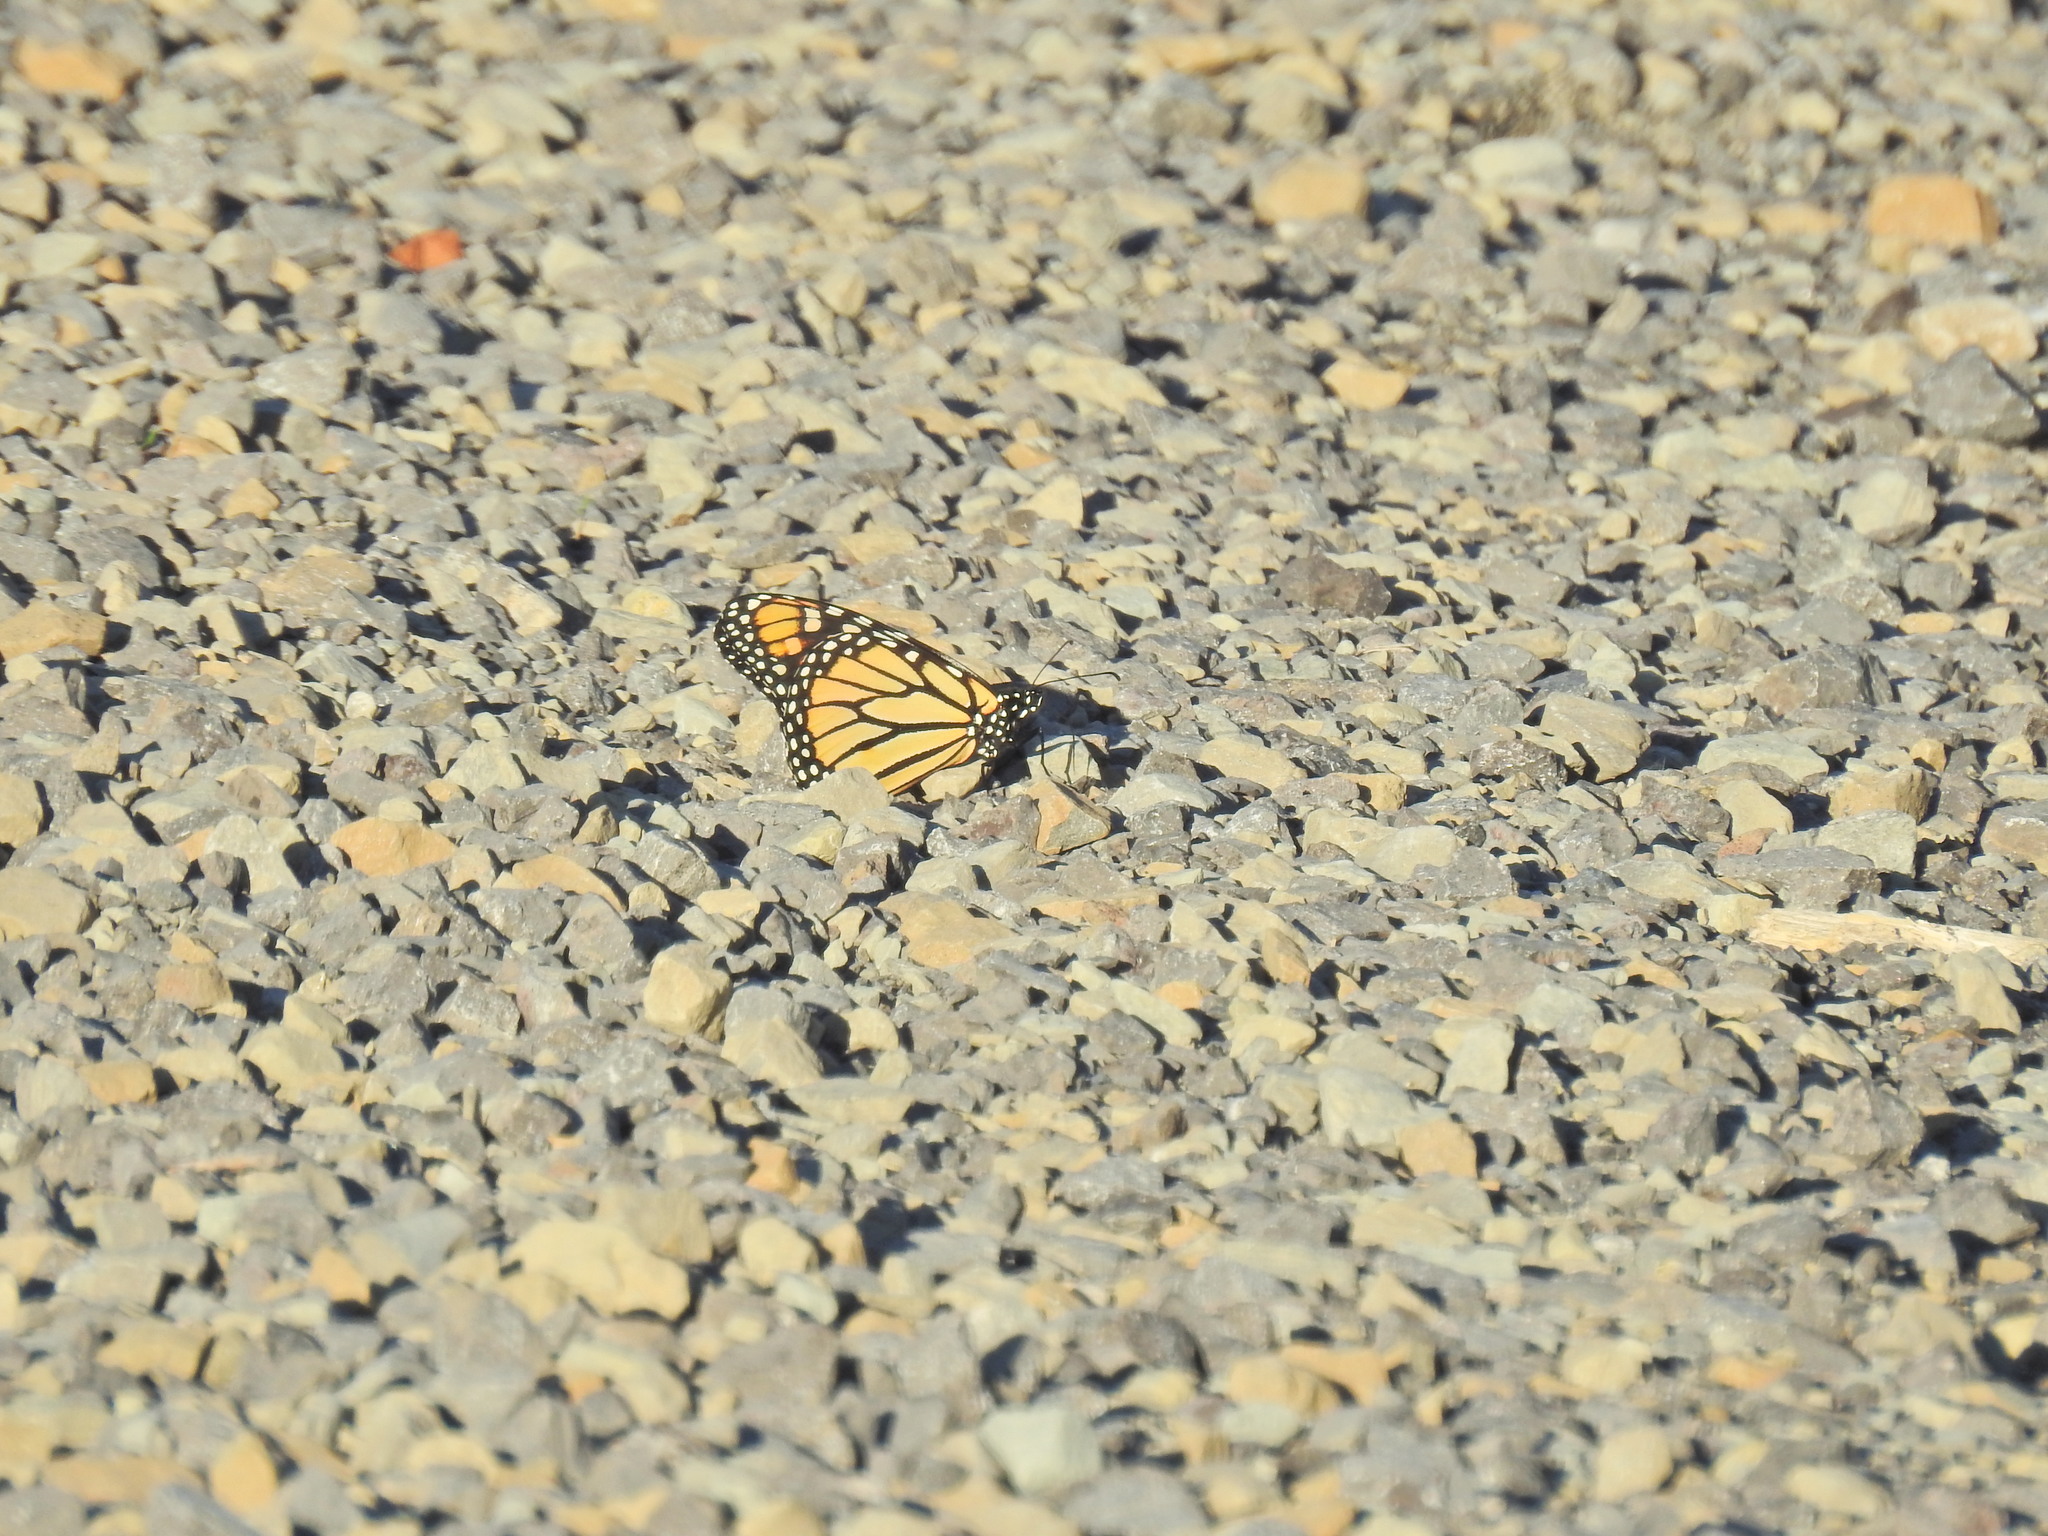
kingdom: Animalia
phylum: Arthropoda
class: Insecta
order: Lepidoptera
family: Nymphalidae
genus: Danaus
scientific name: Danaus plexippus
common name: Monarch
